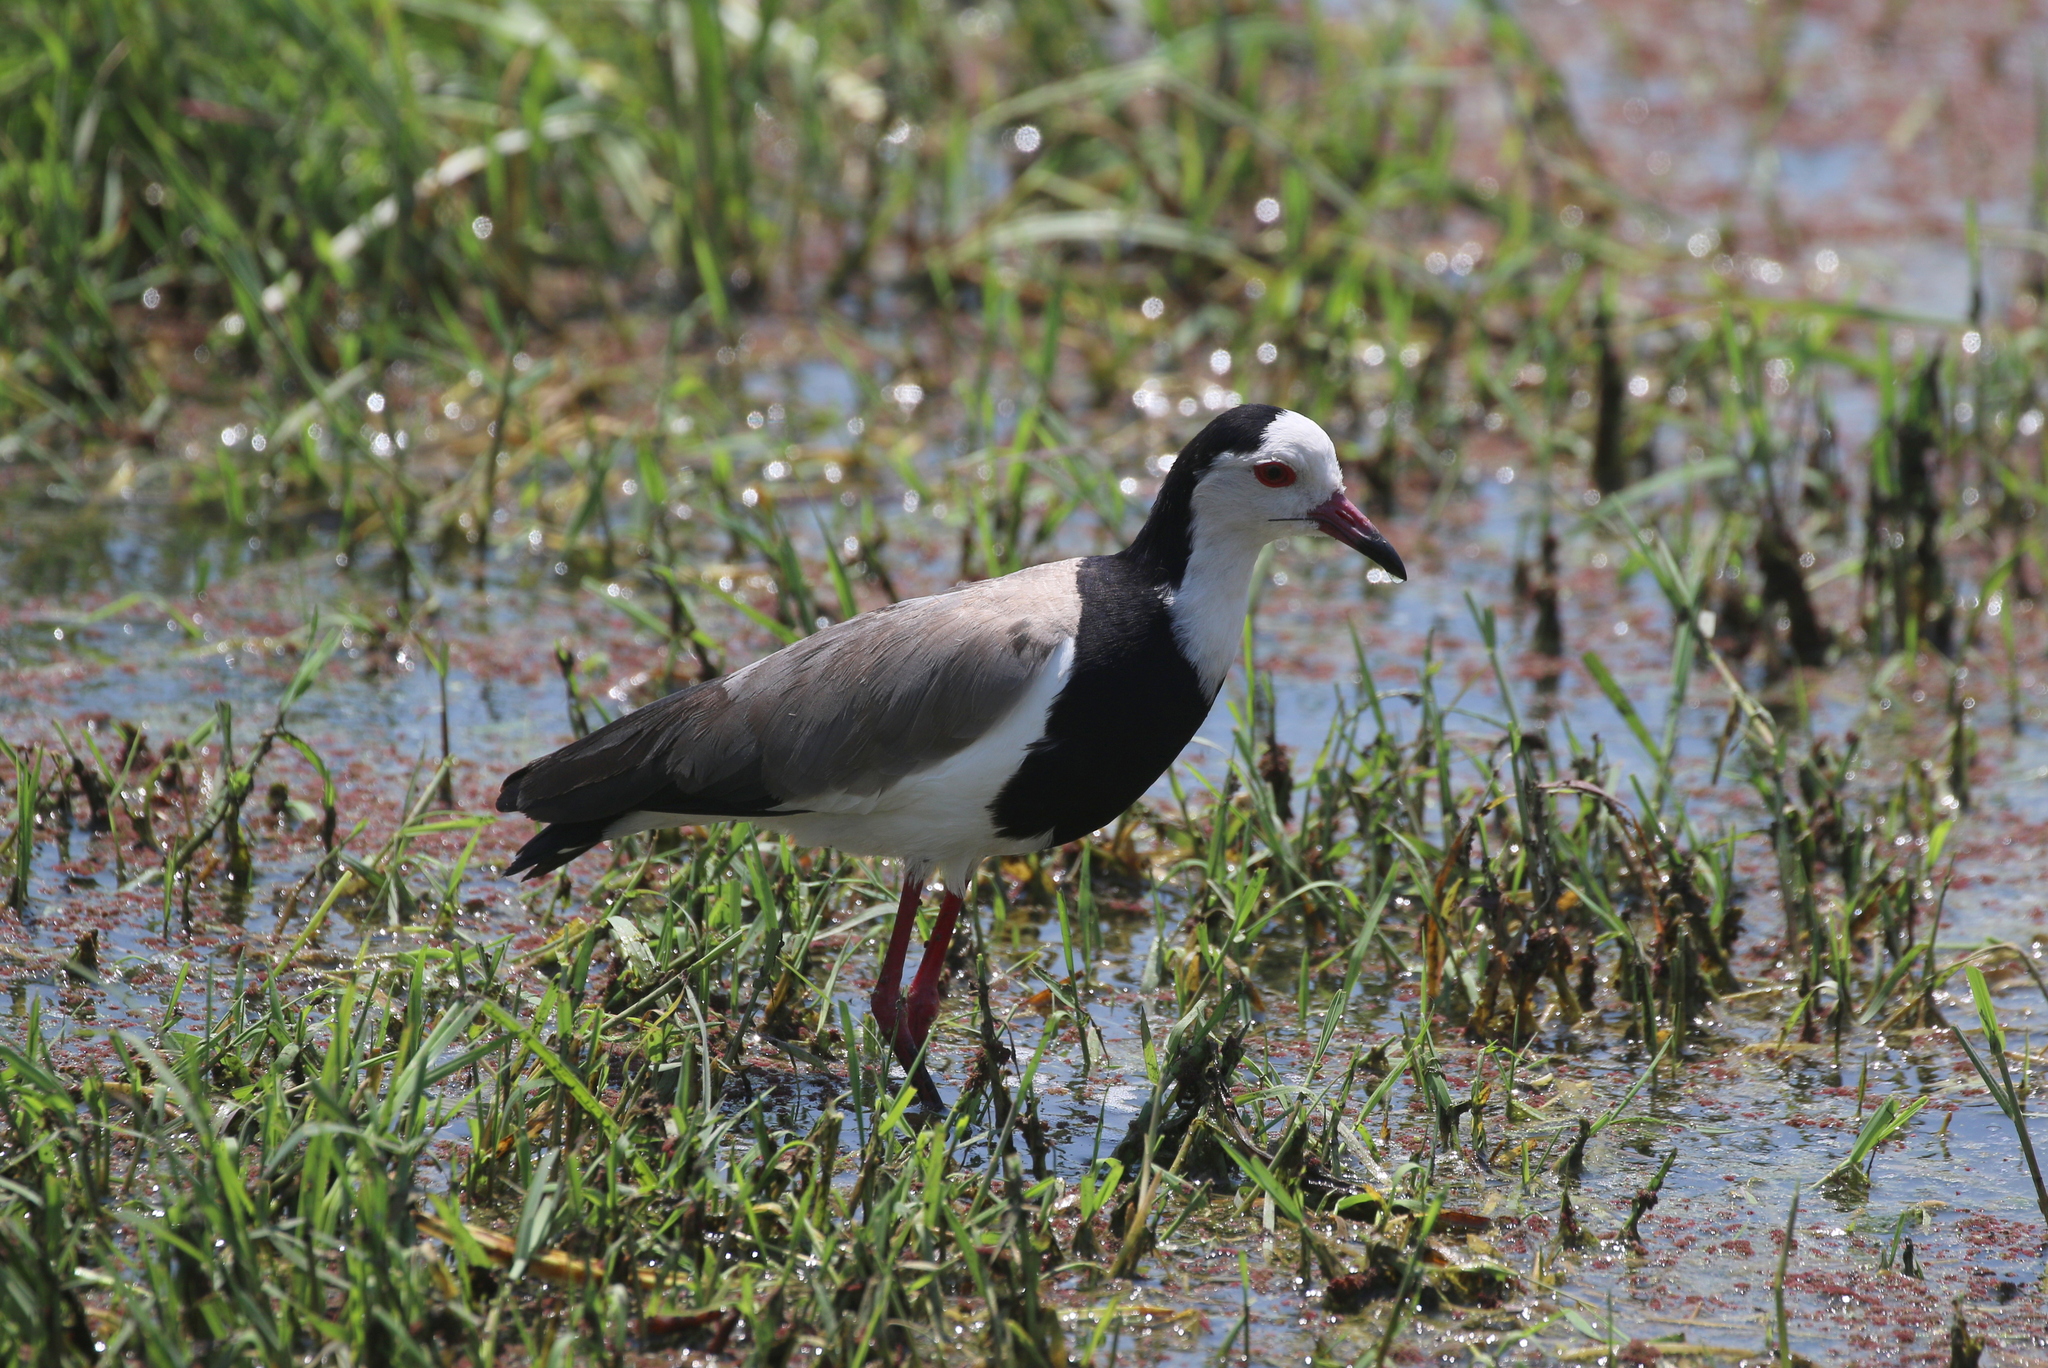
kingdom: Animalia
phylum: Chordata
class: Aves
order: Charadriiformes
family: Charadriidae
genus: Vanellus
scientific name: Vanellus crassirostris
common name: Long-toed lapwing
